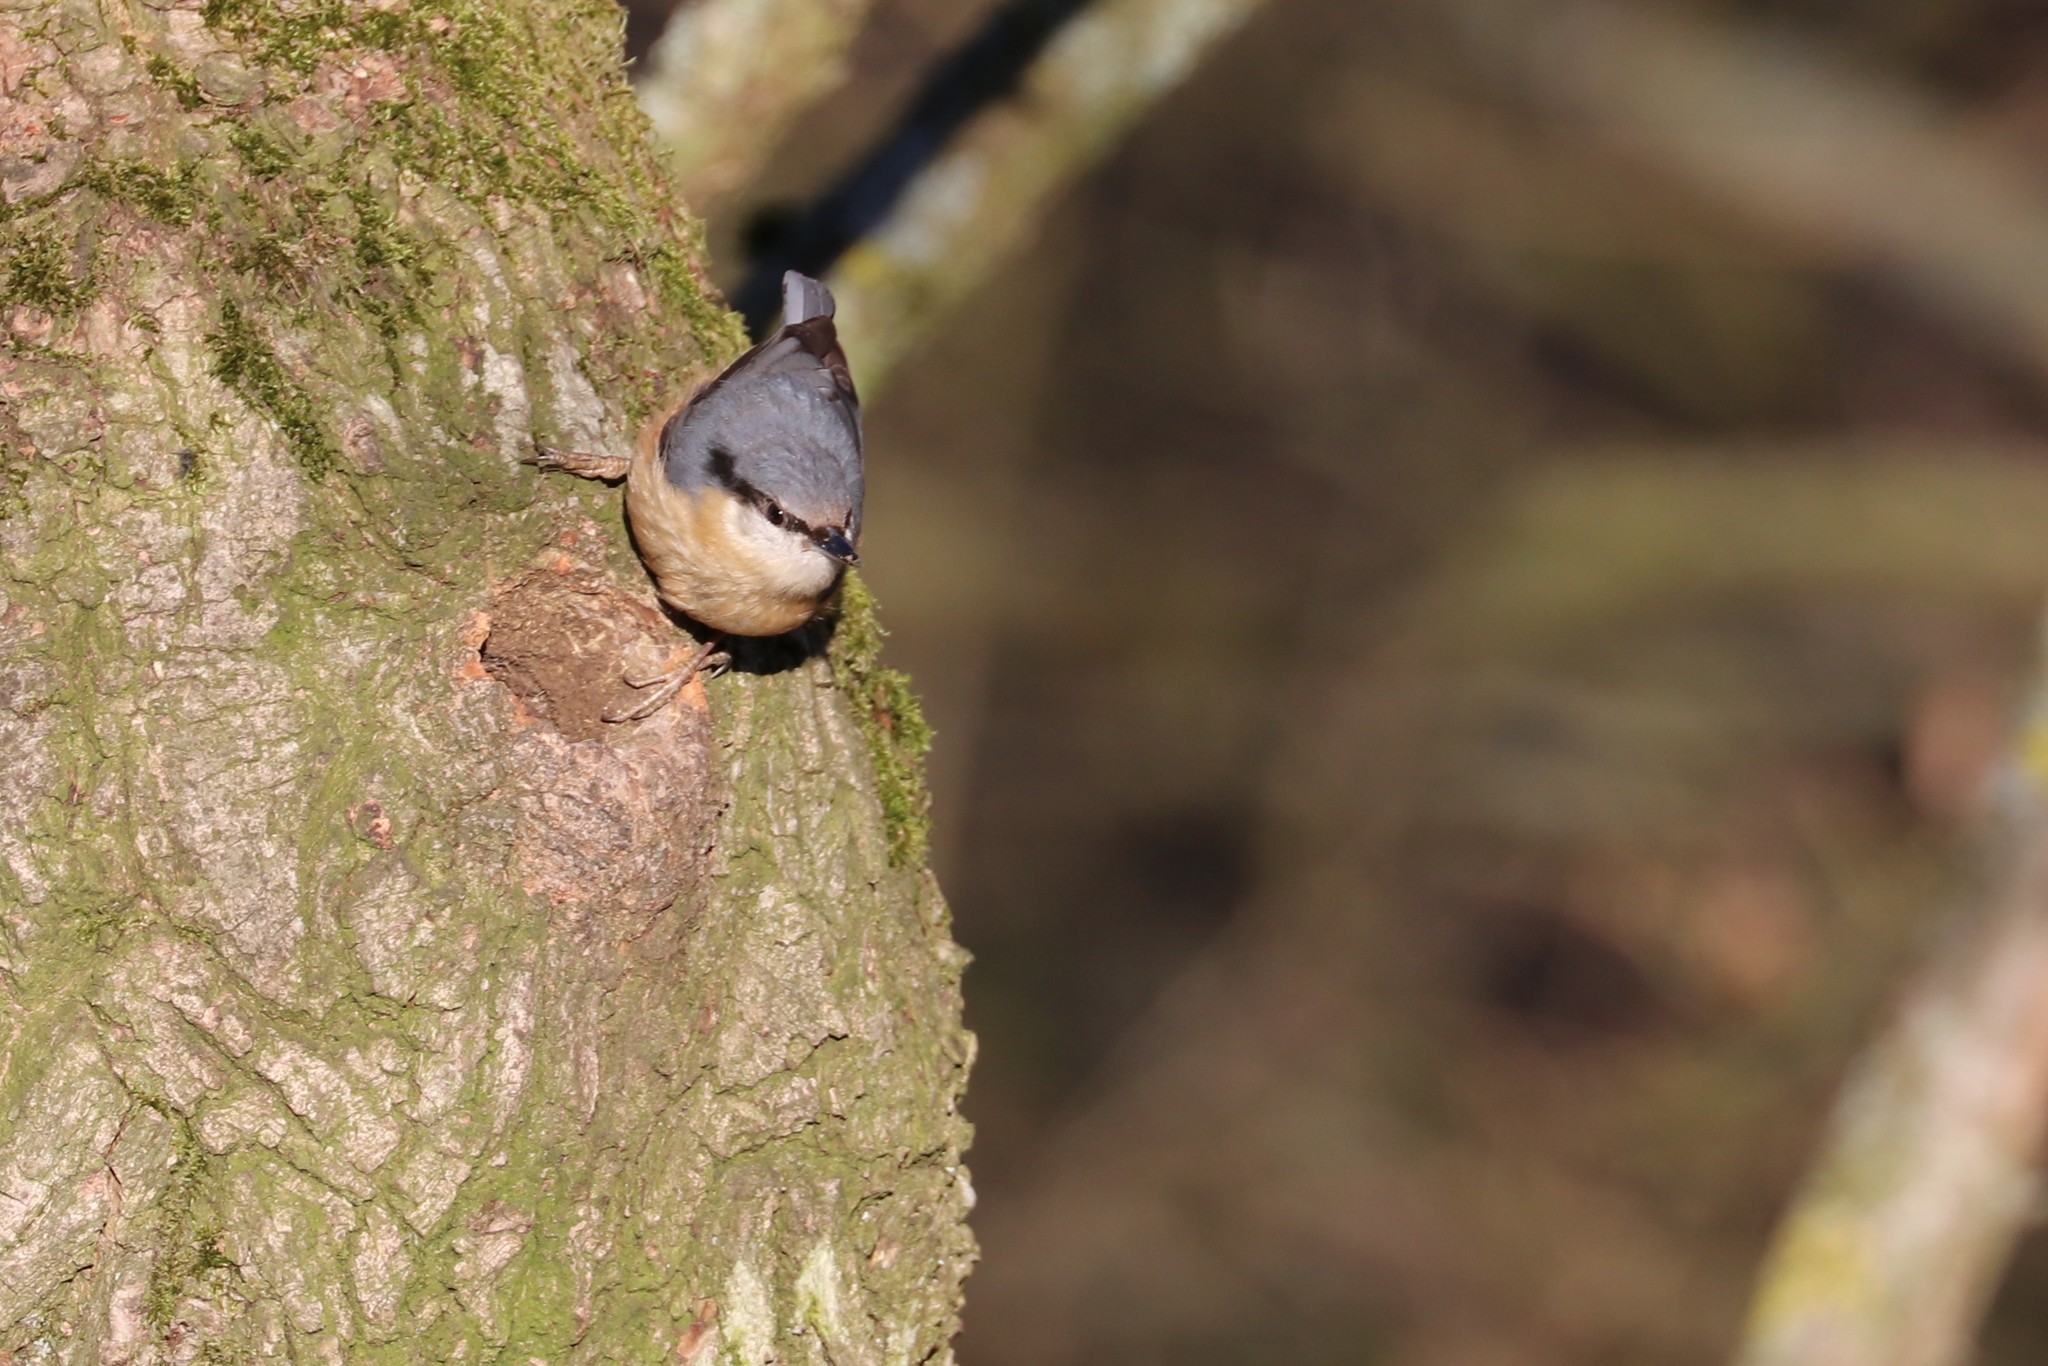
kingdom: Animalia
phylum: Chordata
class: Aves
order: Passeriformes
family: Sittidae
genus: Sitta
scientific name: Sitta europaea
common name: Eurasian nuthatch
